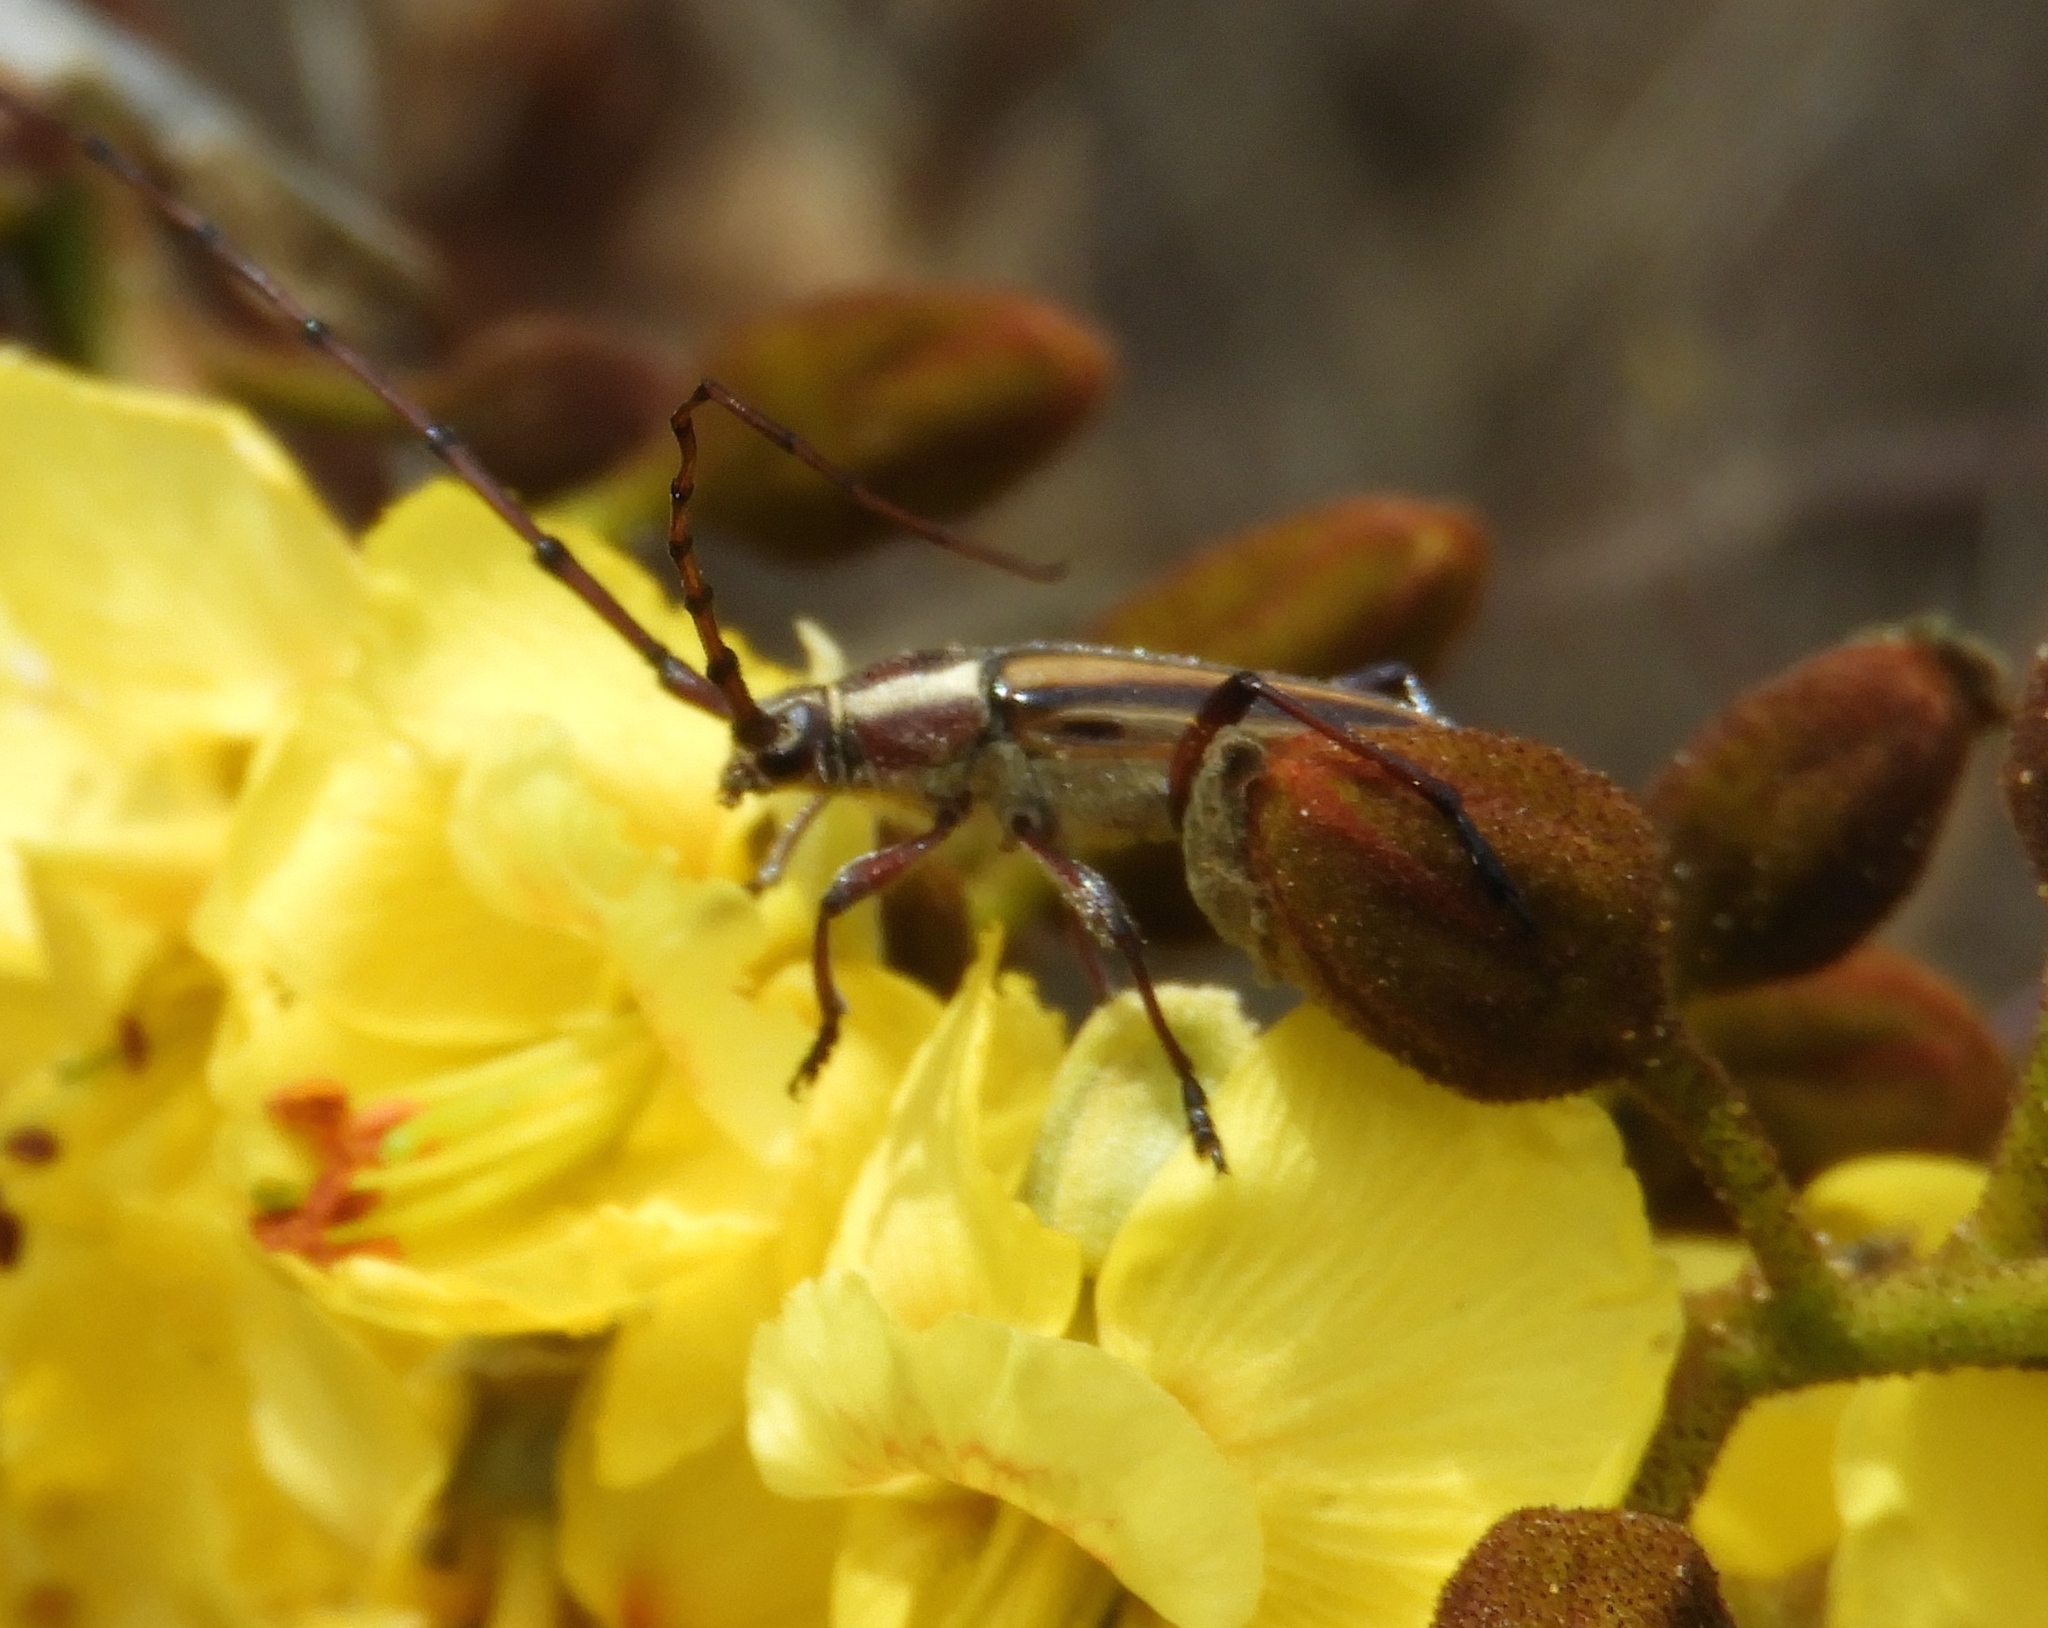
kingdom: Animalia
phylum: Arthropoda
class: Insecta
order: Coleoptera
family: Cerambycidae
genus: Sphaenothecus
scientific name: Sphaenothecus maccartyi
